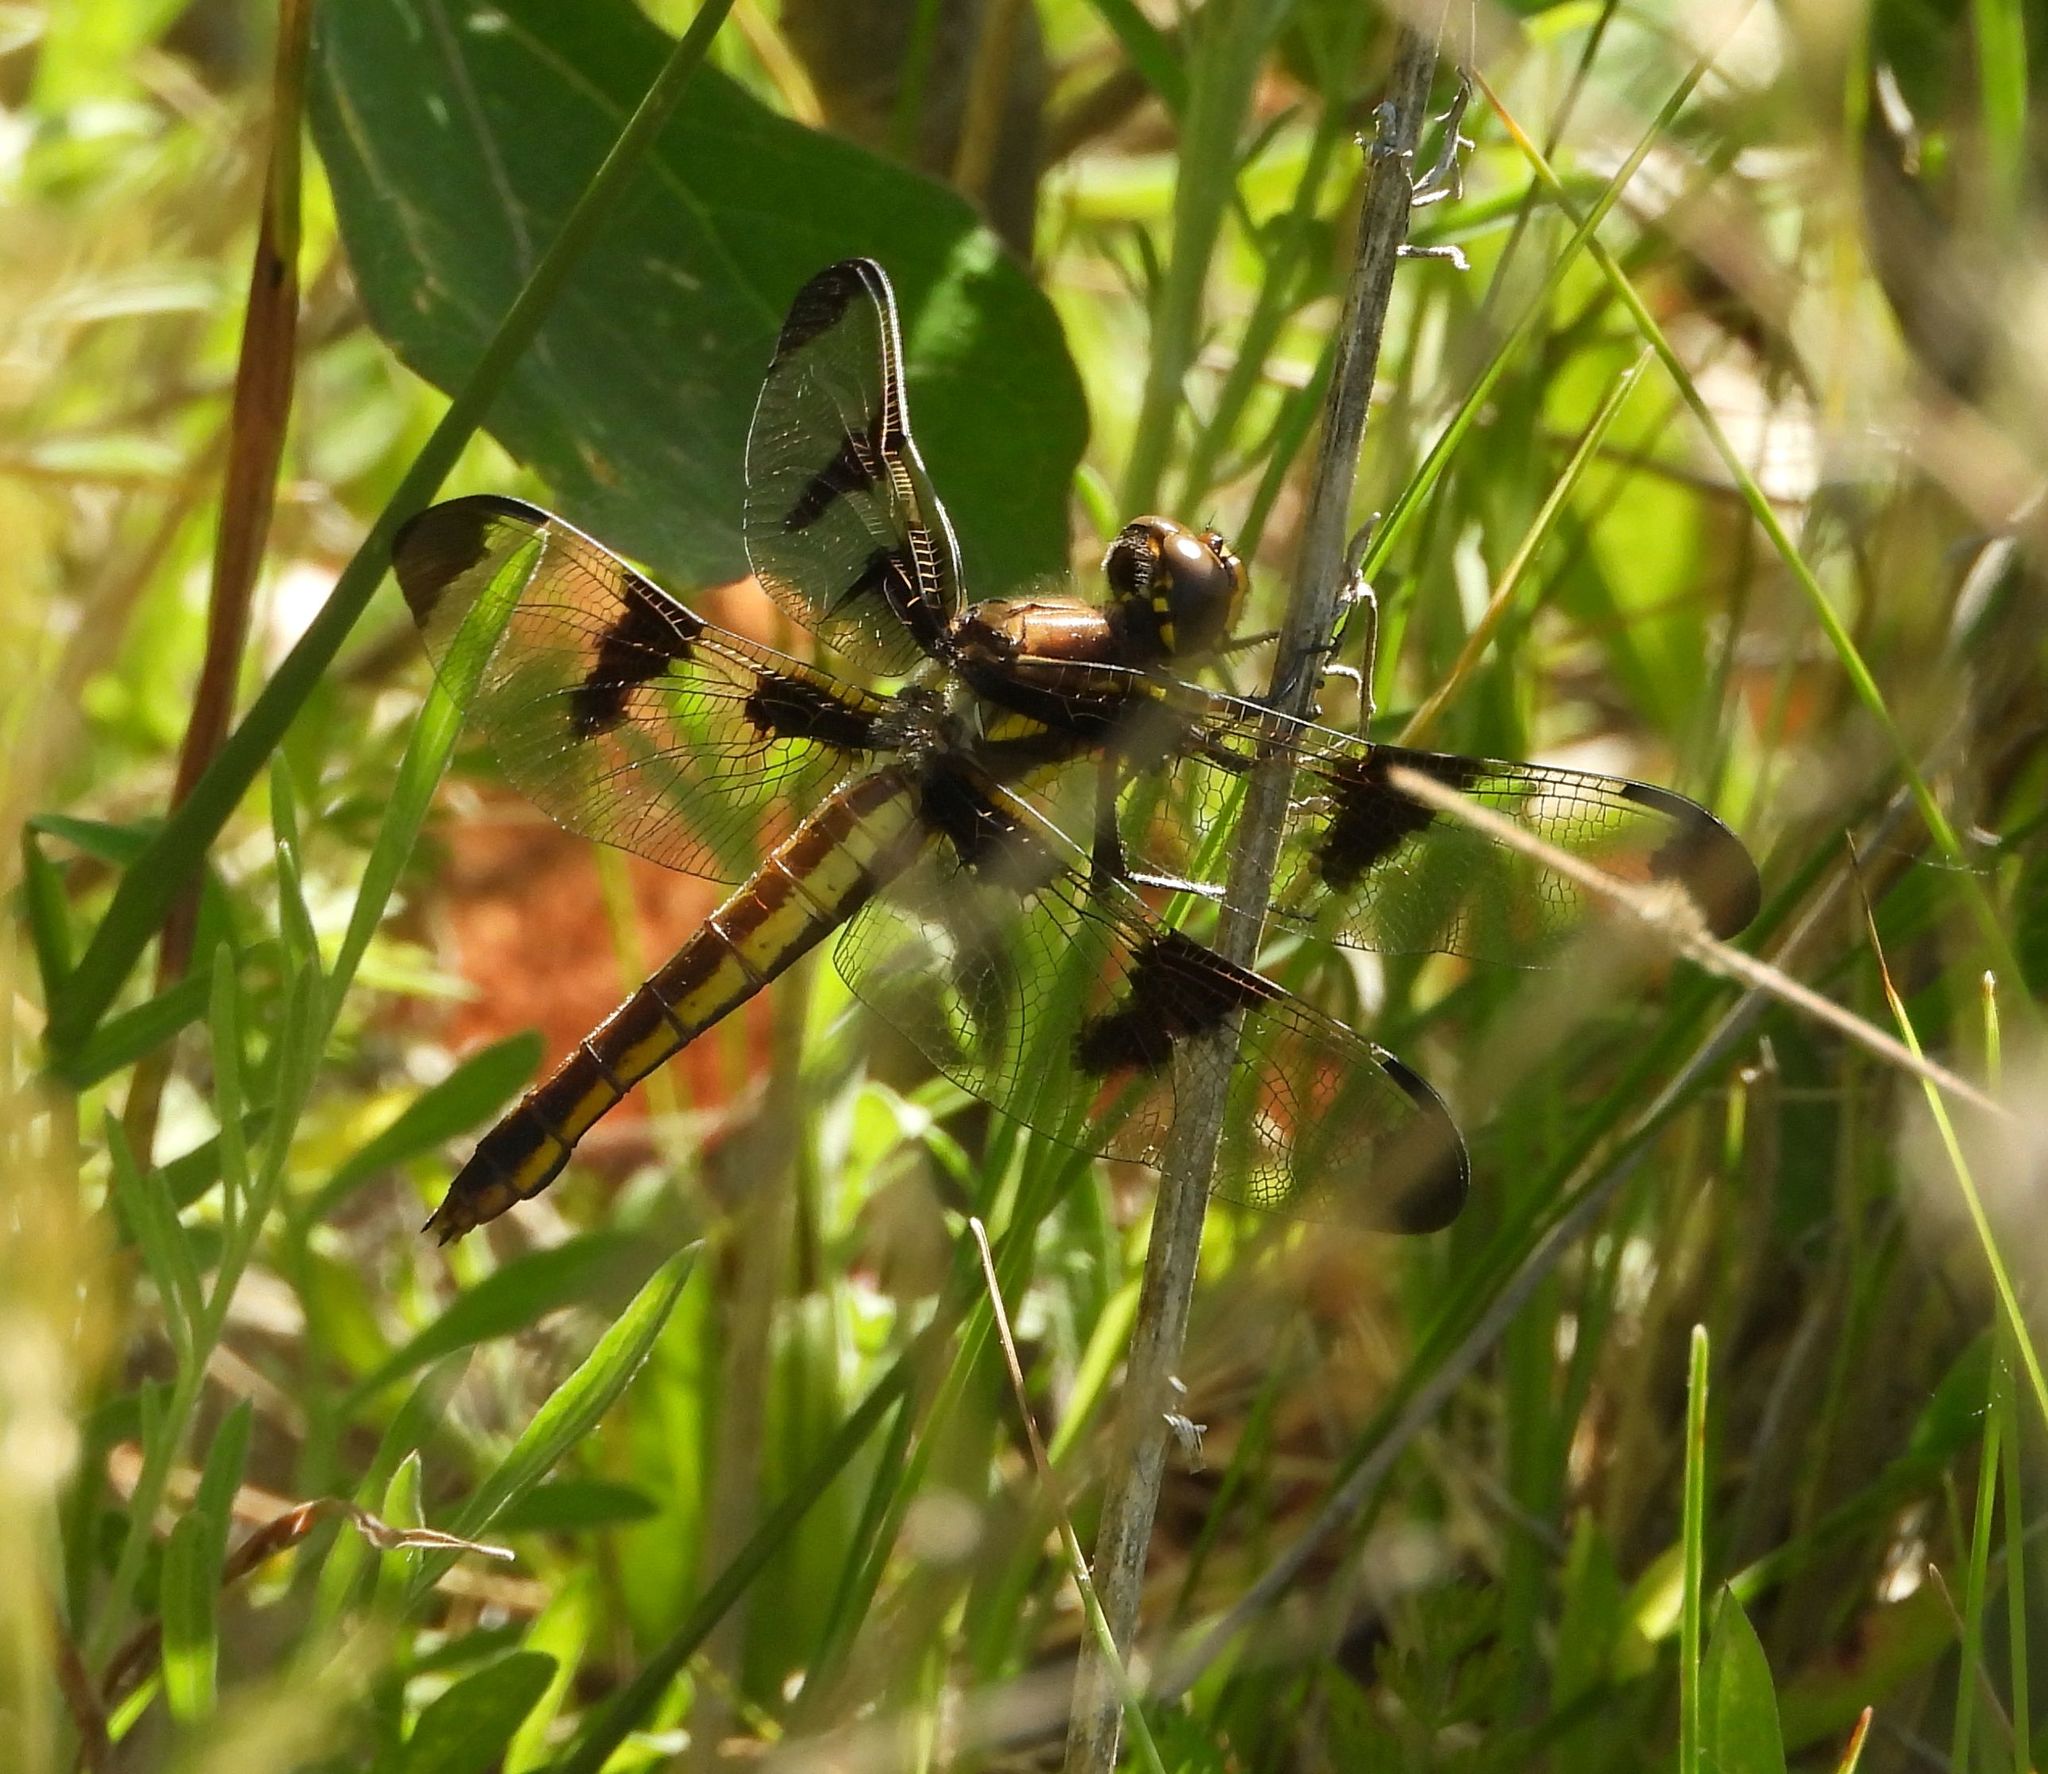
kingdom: Animalia
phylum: Arthropoda
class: Insecta
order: Odonata
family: Libellulidae
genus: Libellula
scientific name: Libellula pulchella
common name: Twelve-spotted skimmer
